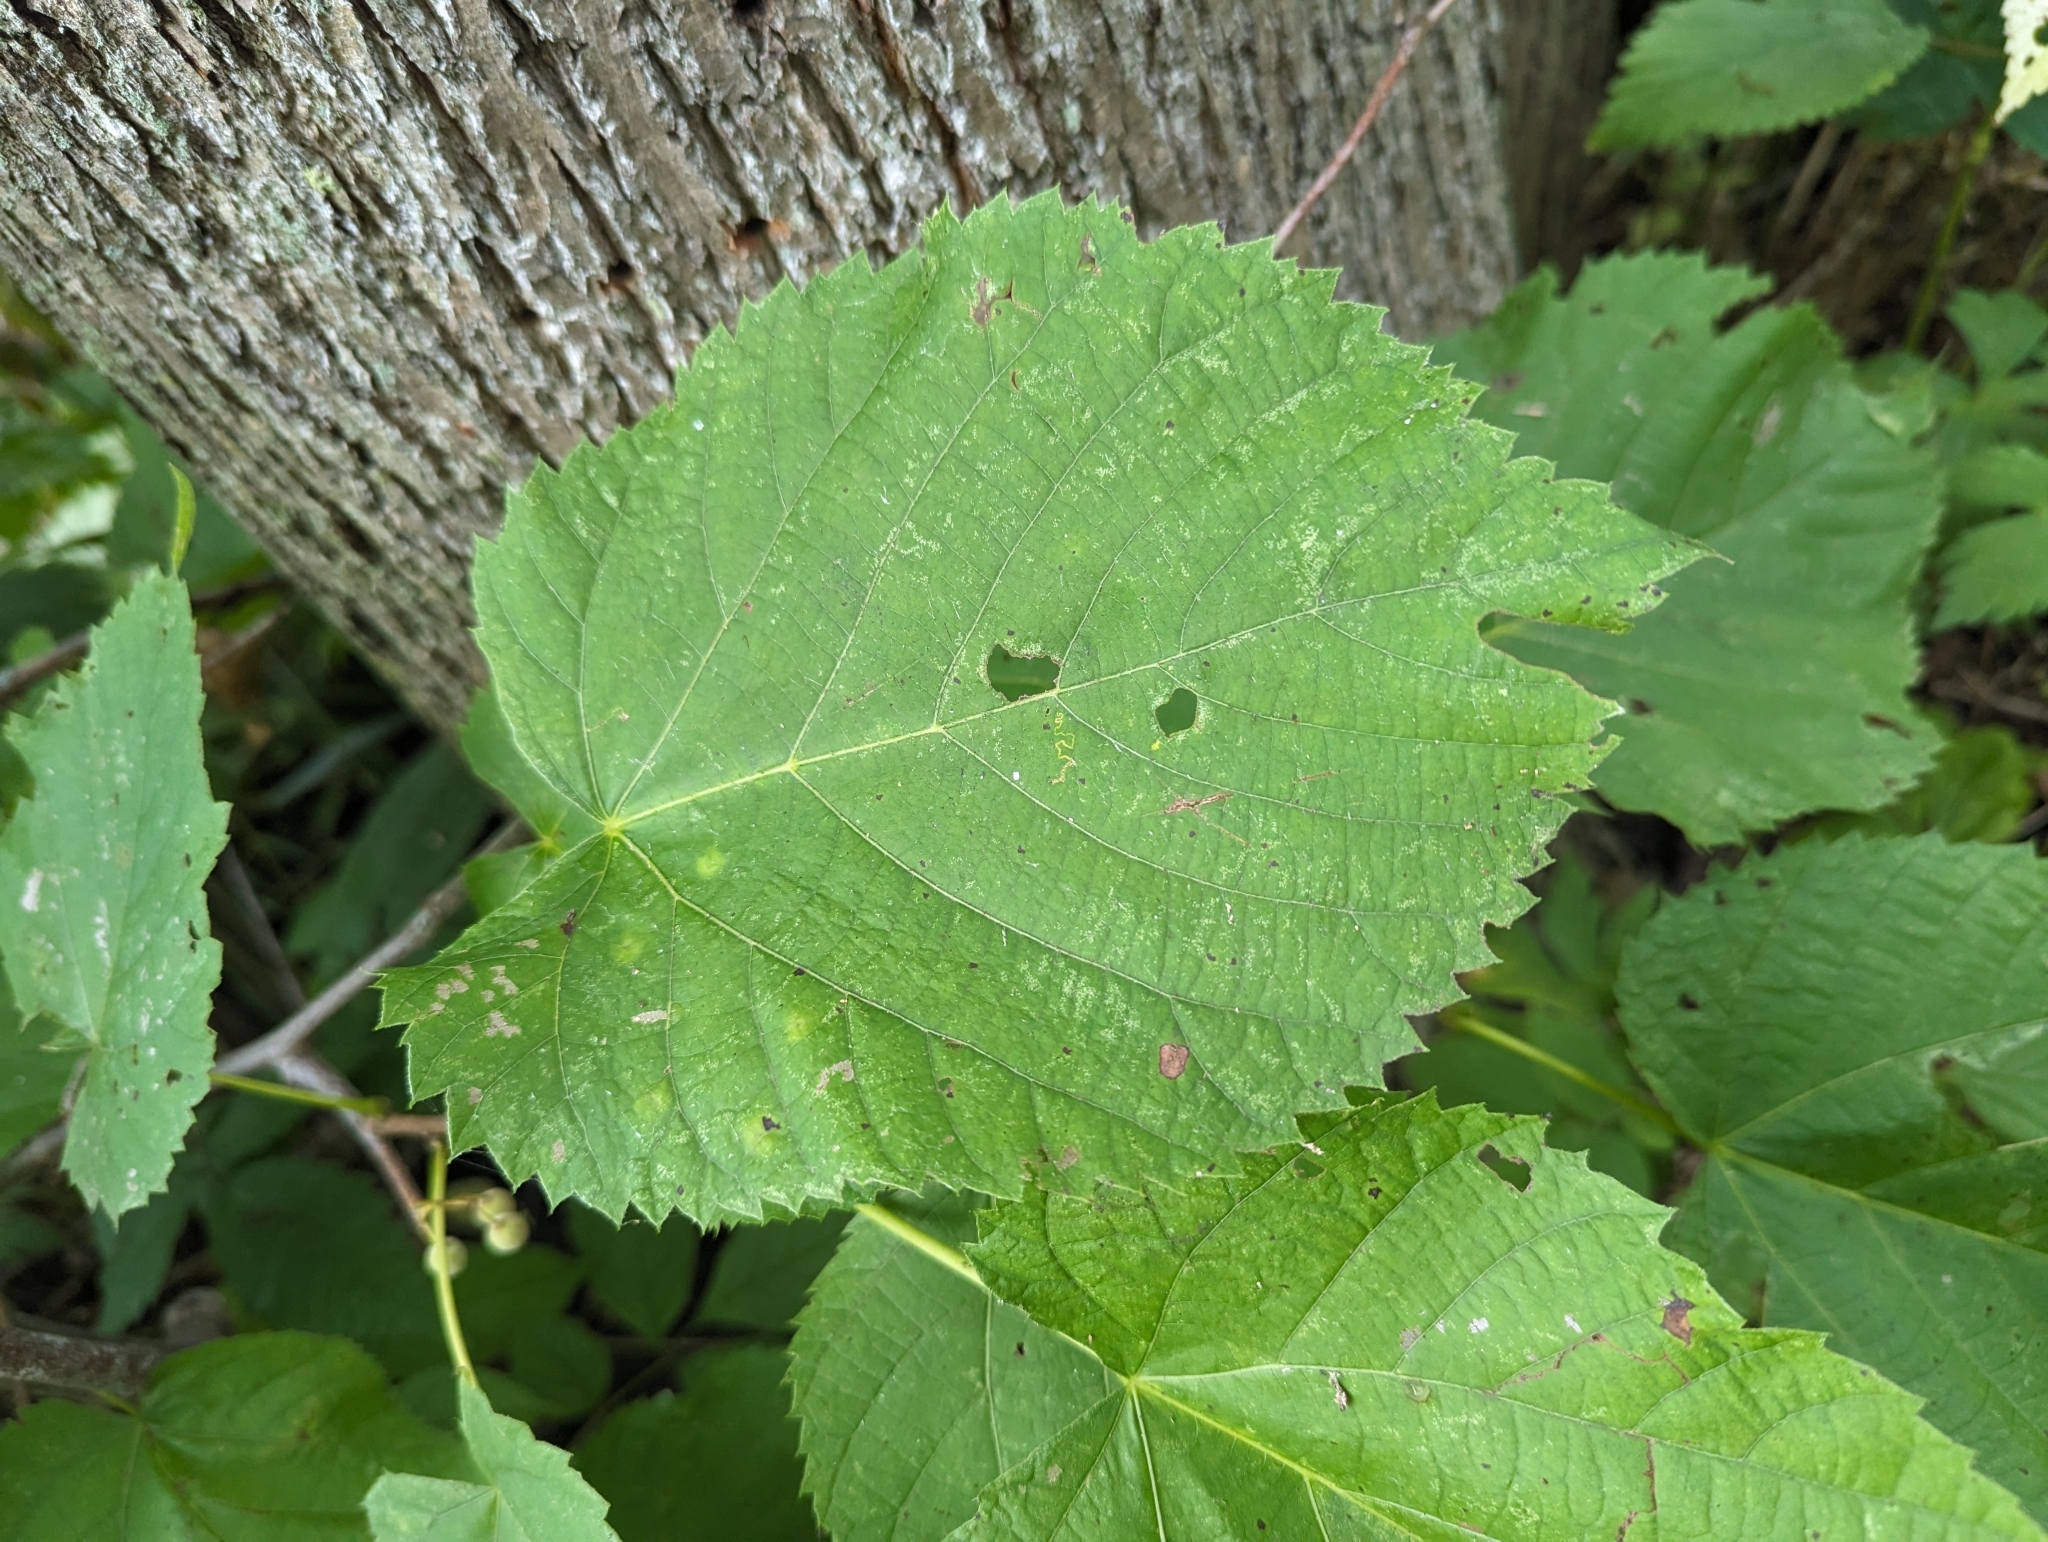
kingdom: Plantae
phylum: Tracheophyta
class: Magnoliopsida
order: Malvales
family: Malvaceae
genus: Tilia
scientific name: Tilia americana
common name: Basswood
